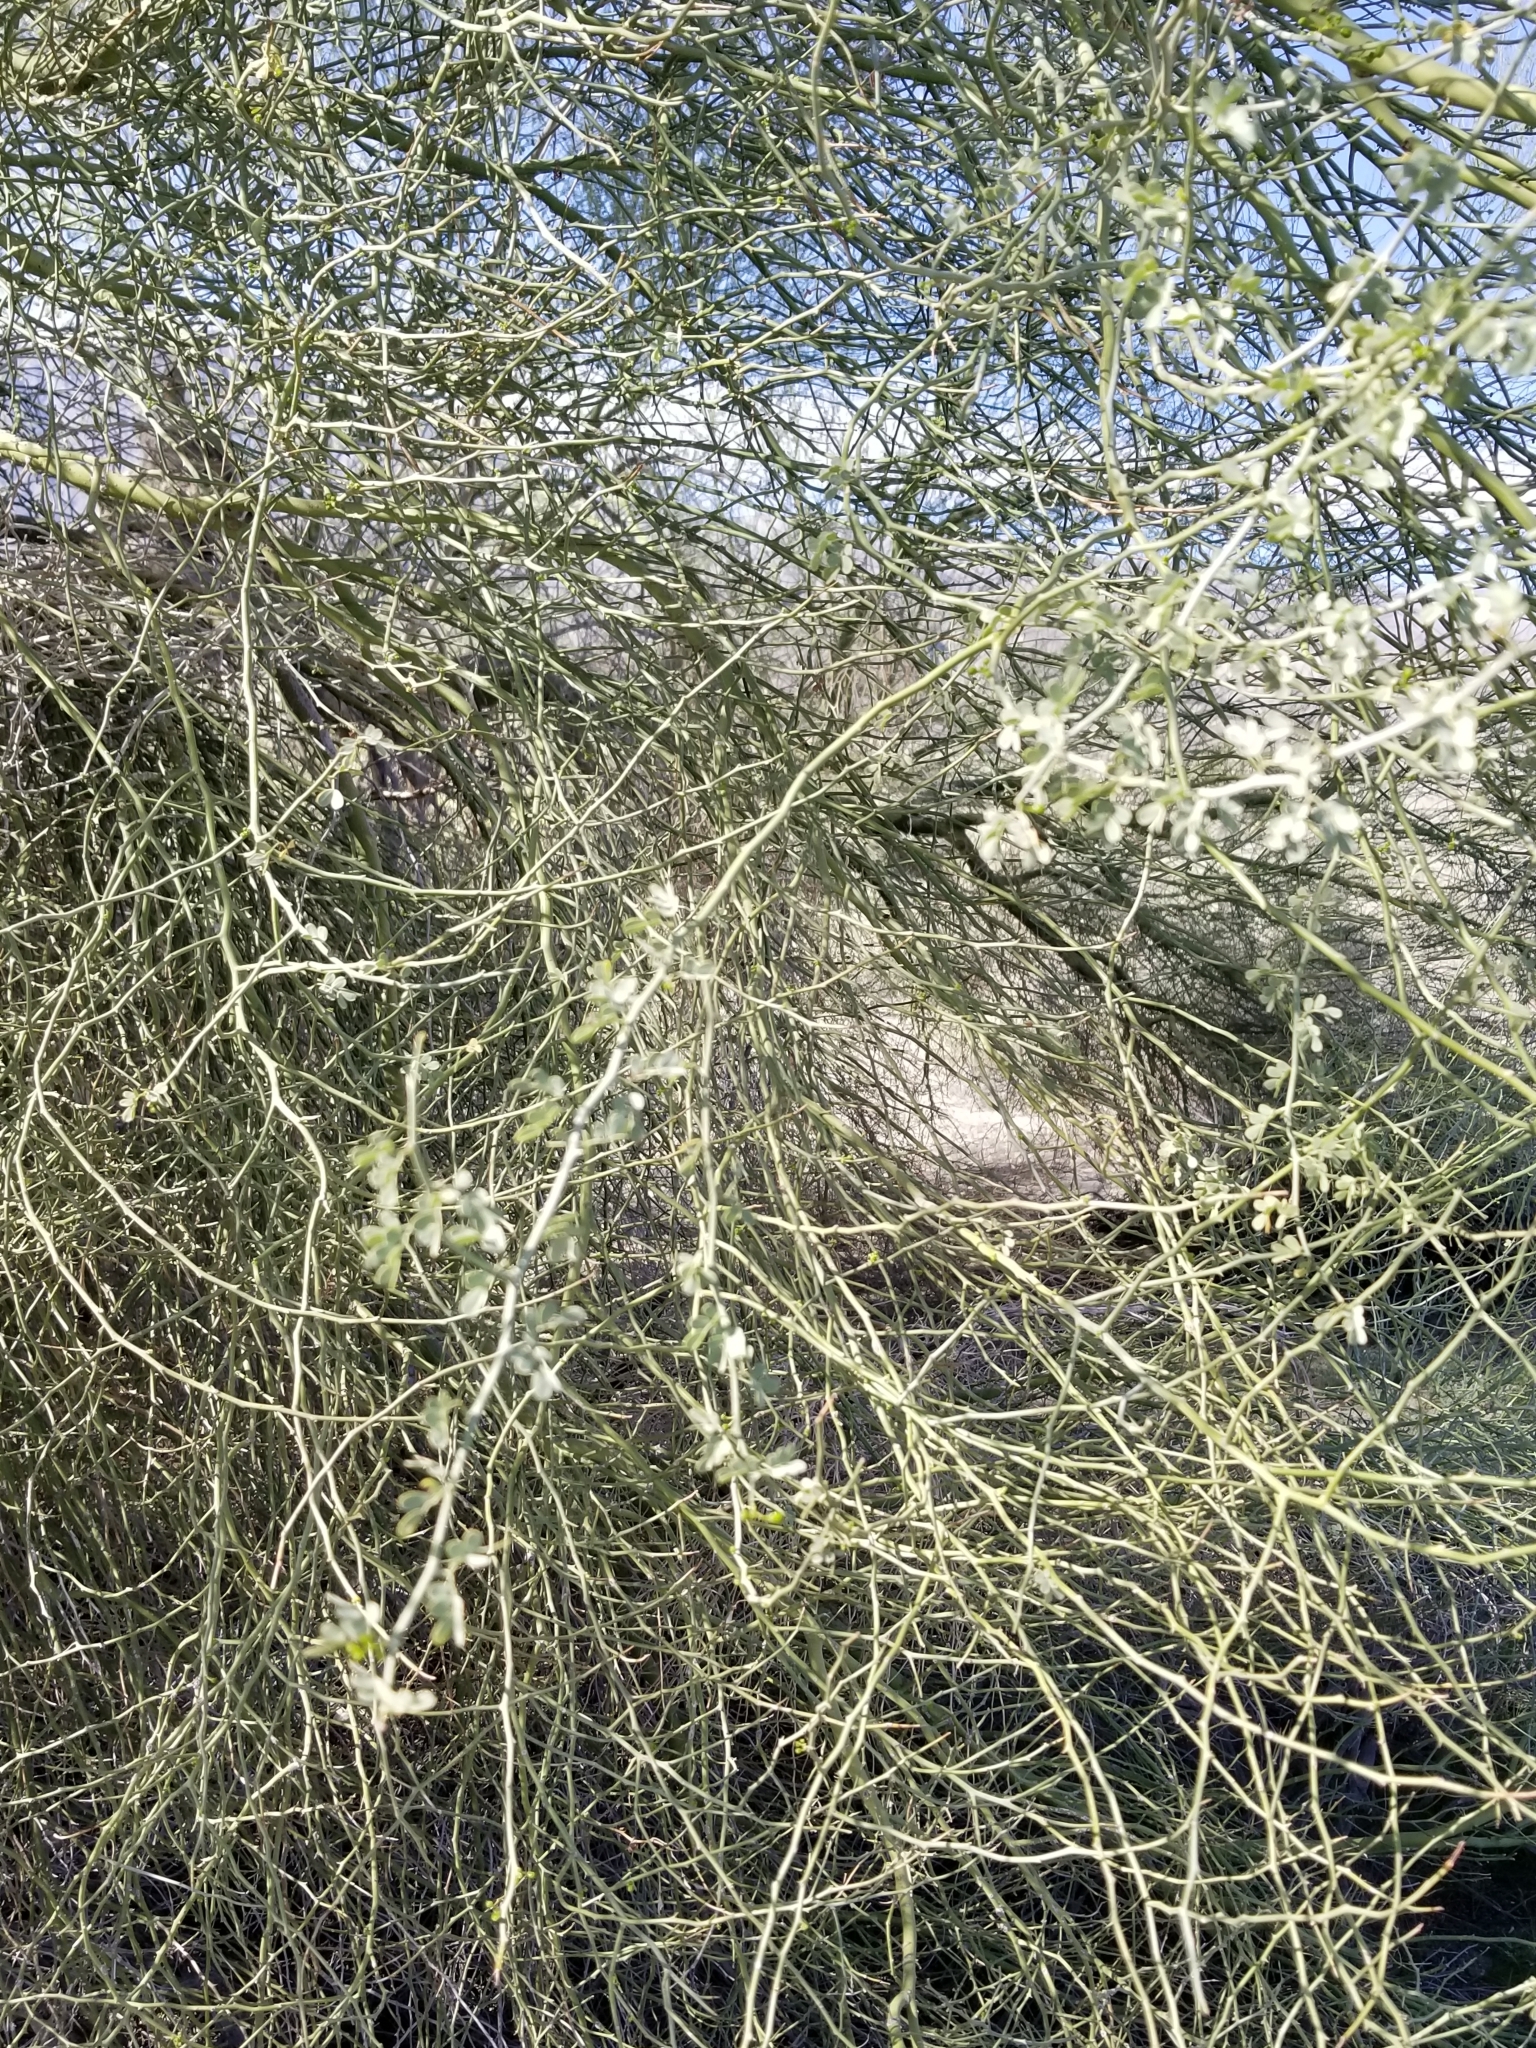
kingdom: Plantae
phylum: Tracheophyta
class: Magnoliopsida
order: Fabales
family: Fabaceae
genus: Parkinsonia
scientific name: Parkinsonia florida
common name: Blue paloverde
